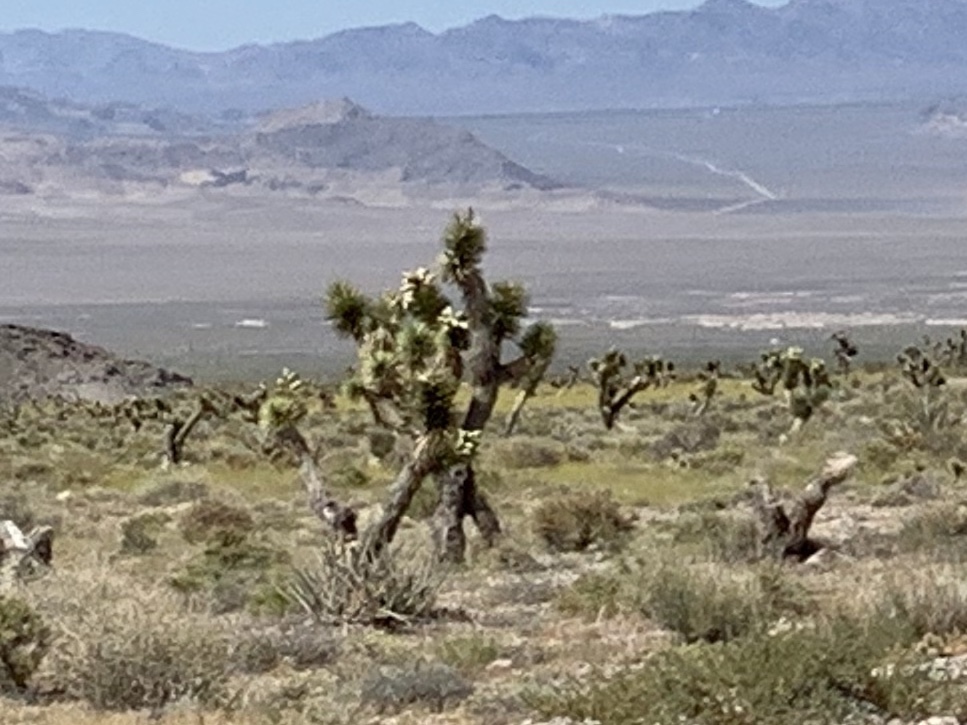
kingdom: Plantae
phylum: Tracheophyta
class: Liliopsida
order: Asparagales
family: Asparagaceae
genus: Yucca
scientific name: Yucca brevifolia
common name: Joshua tree
